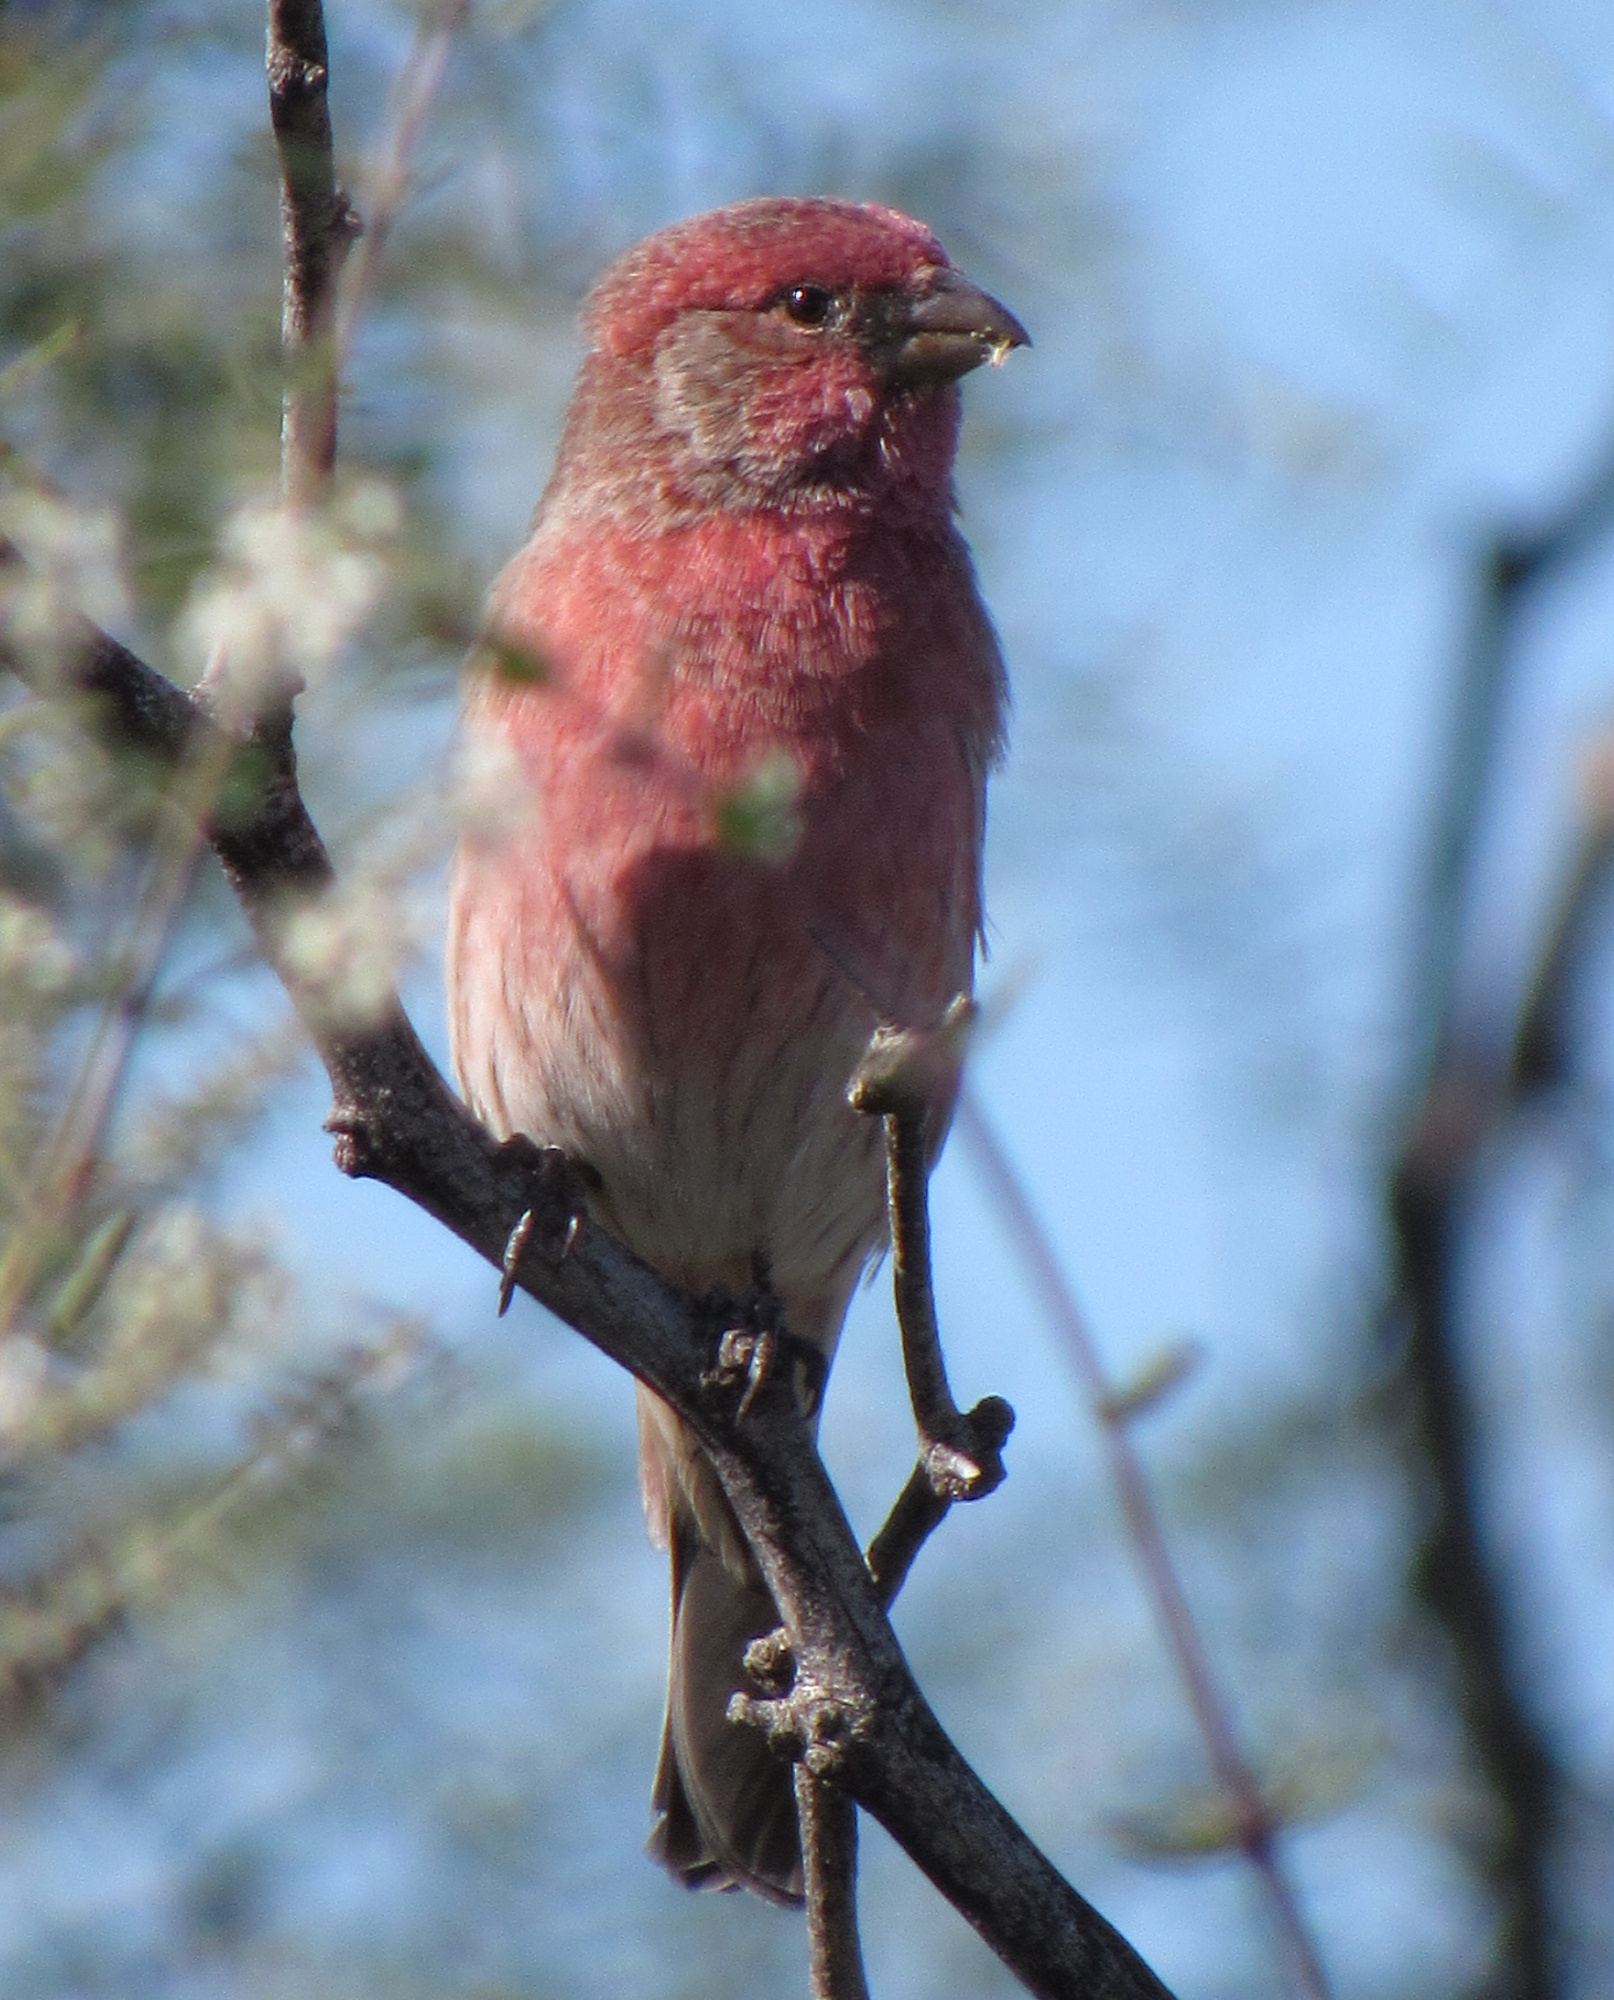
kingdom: Animalia
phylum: Chordata
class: Aves
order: Passeriformes
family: Fringillidae
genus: Haemorhous
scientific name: Haemorhous mexicanus
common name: House finch
